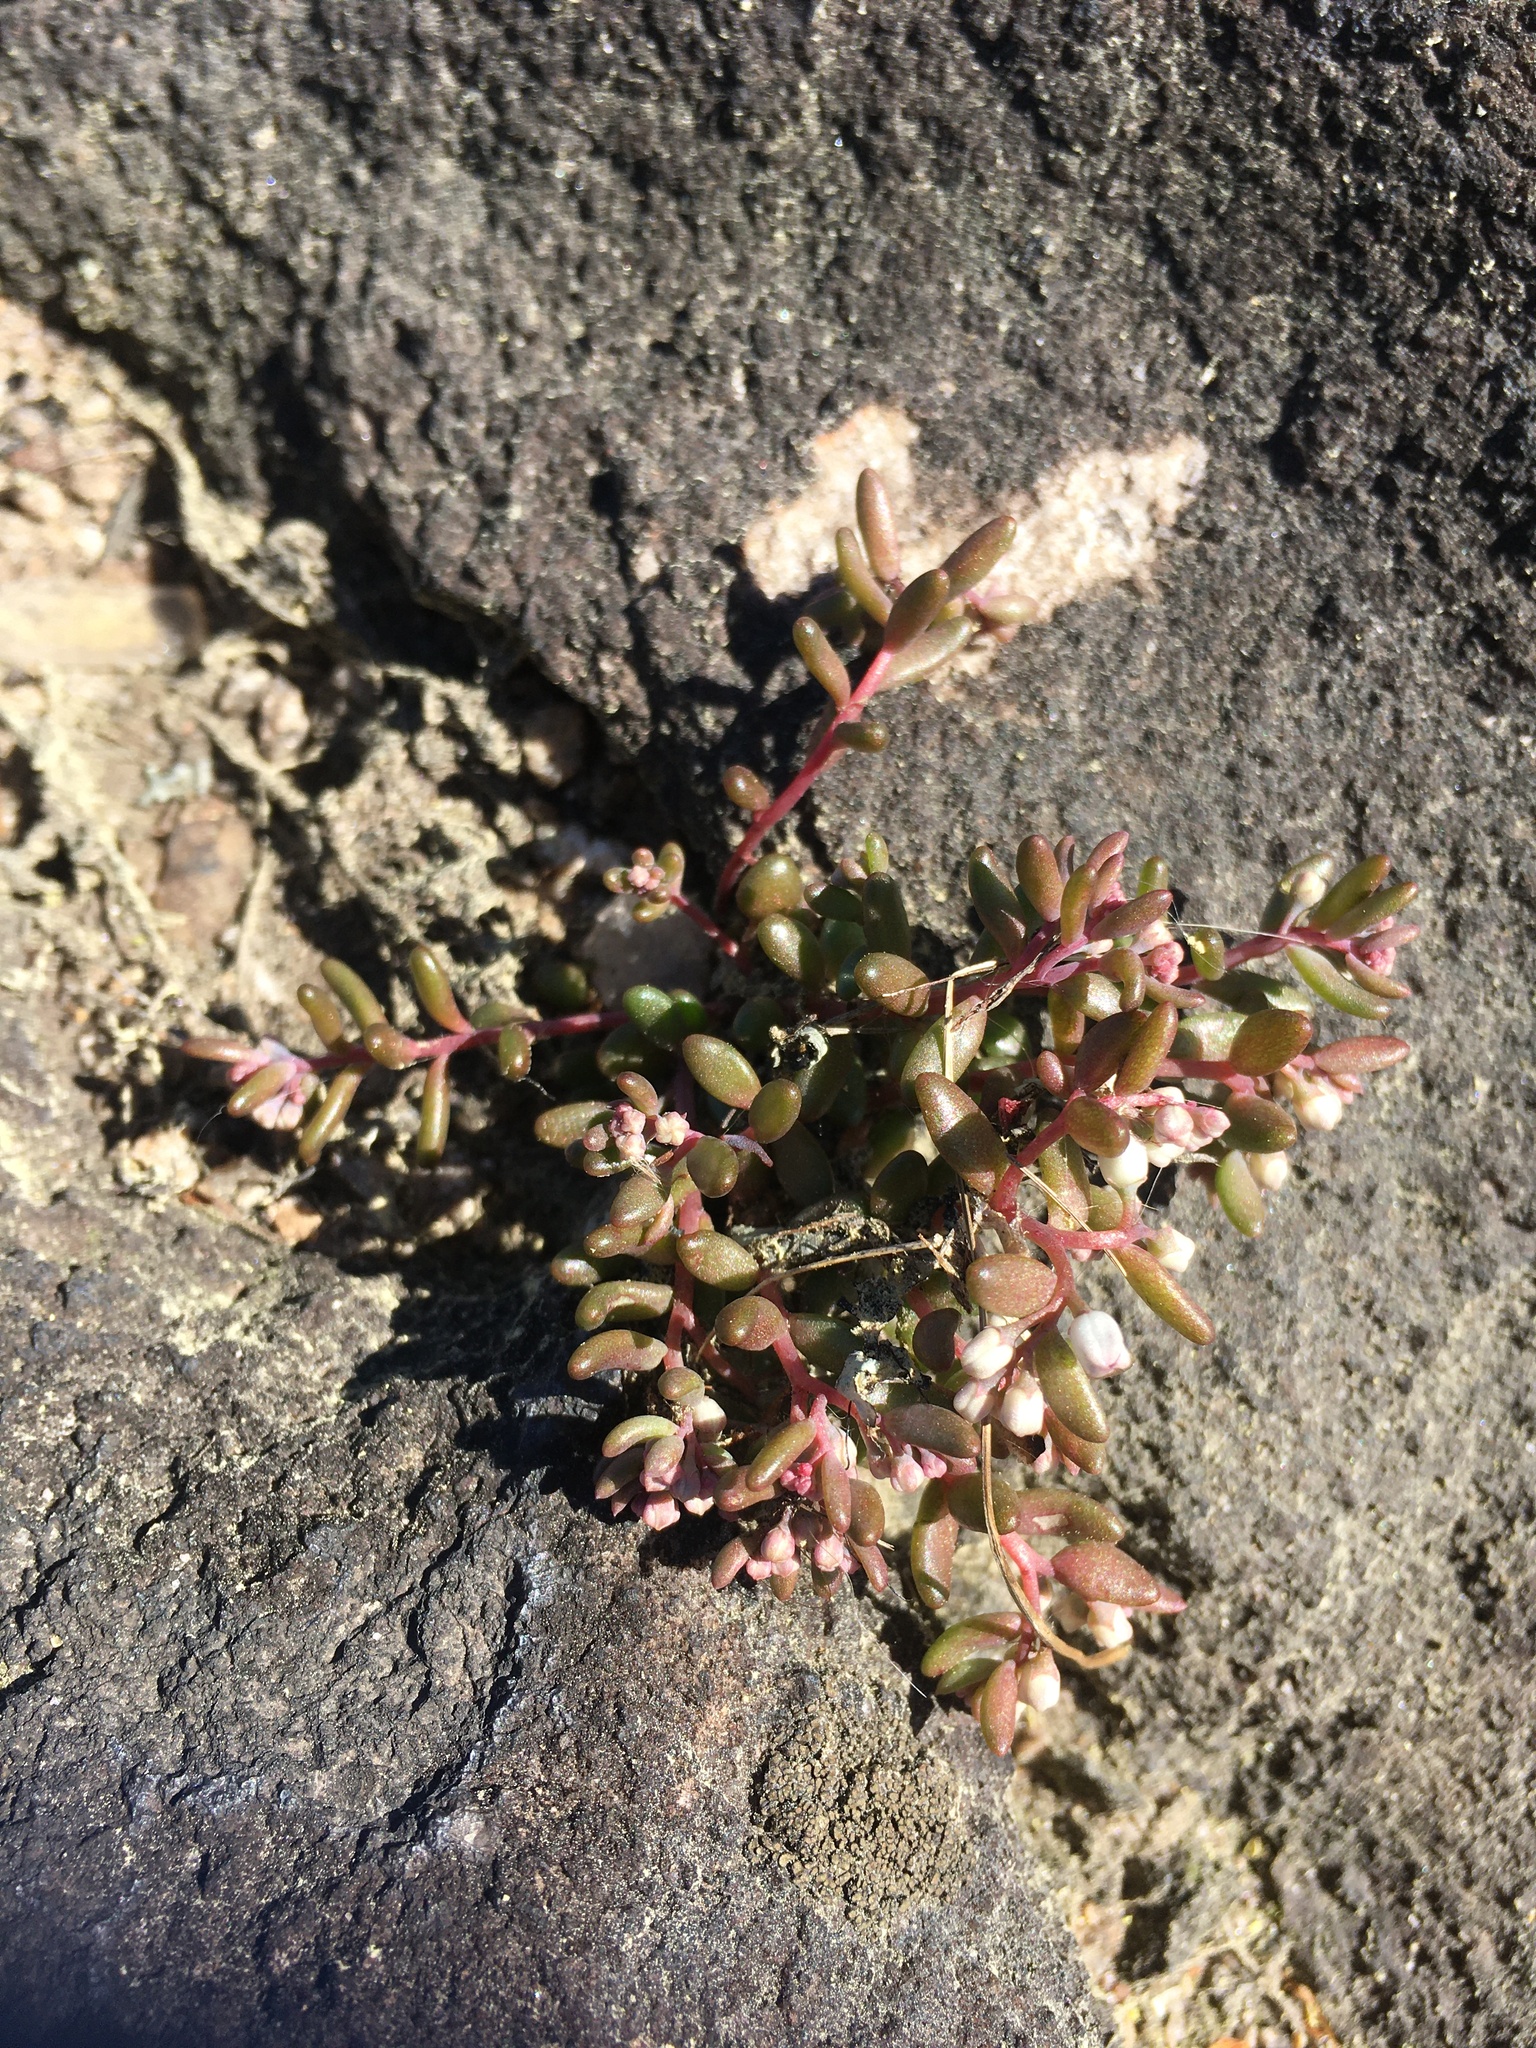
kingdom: Plantae
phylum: Tracheophyta
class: Magnoliopsida
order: Saxifragales
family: Crassulaceae
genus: Sedum
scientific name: Sedum smallii
